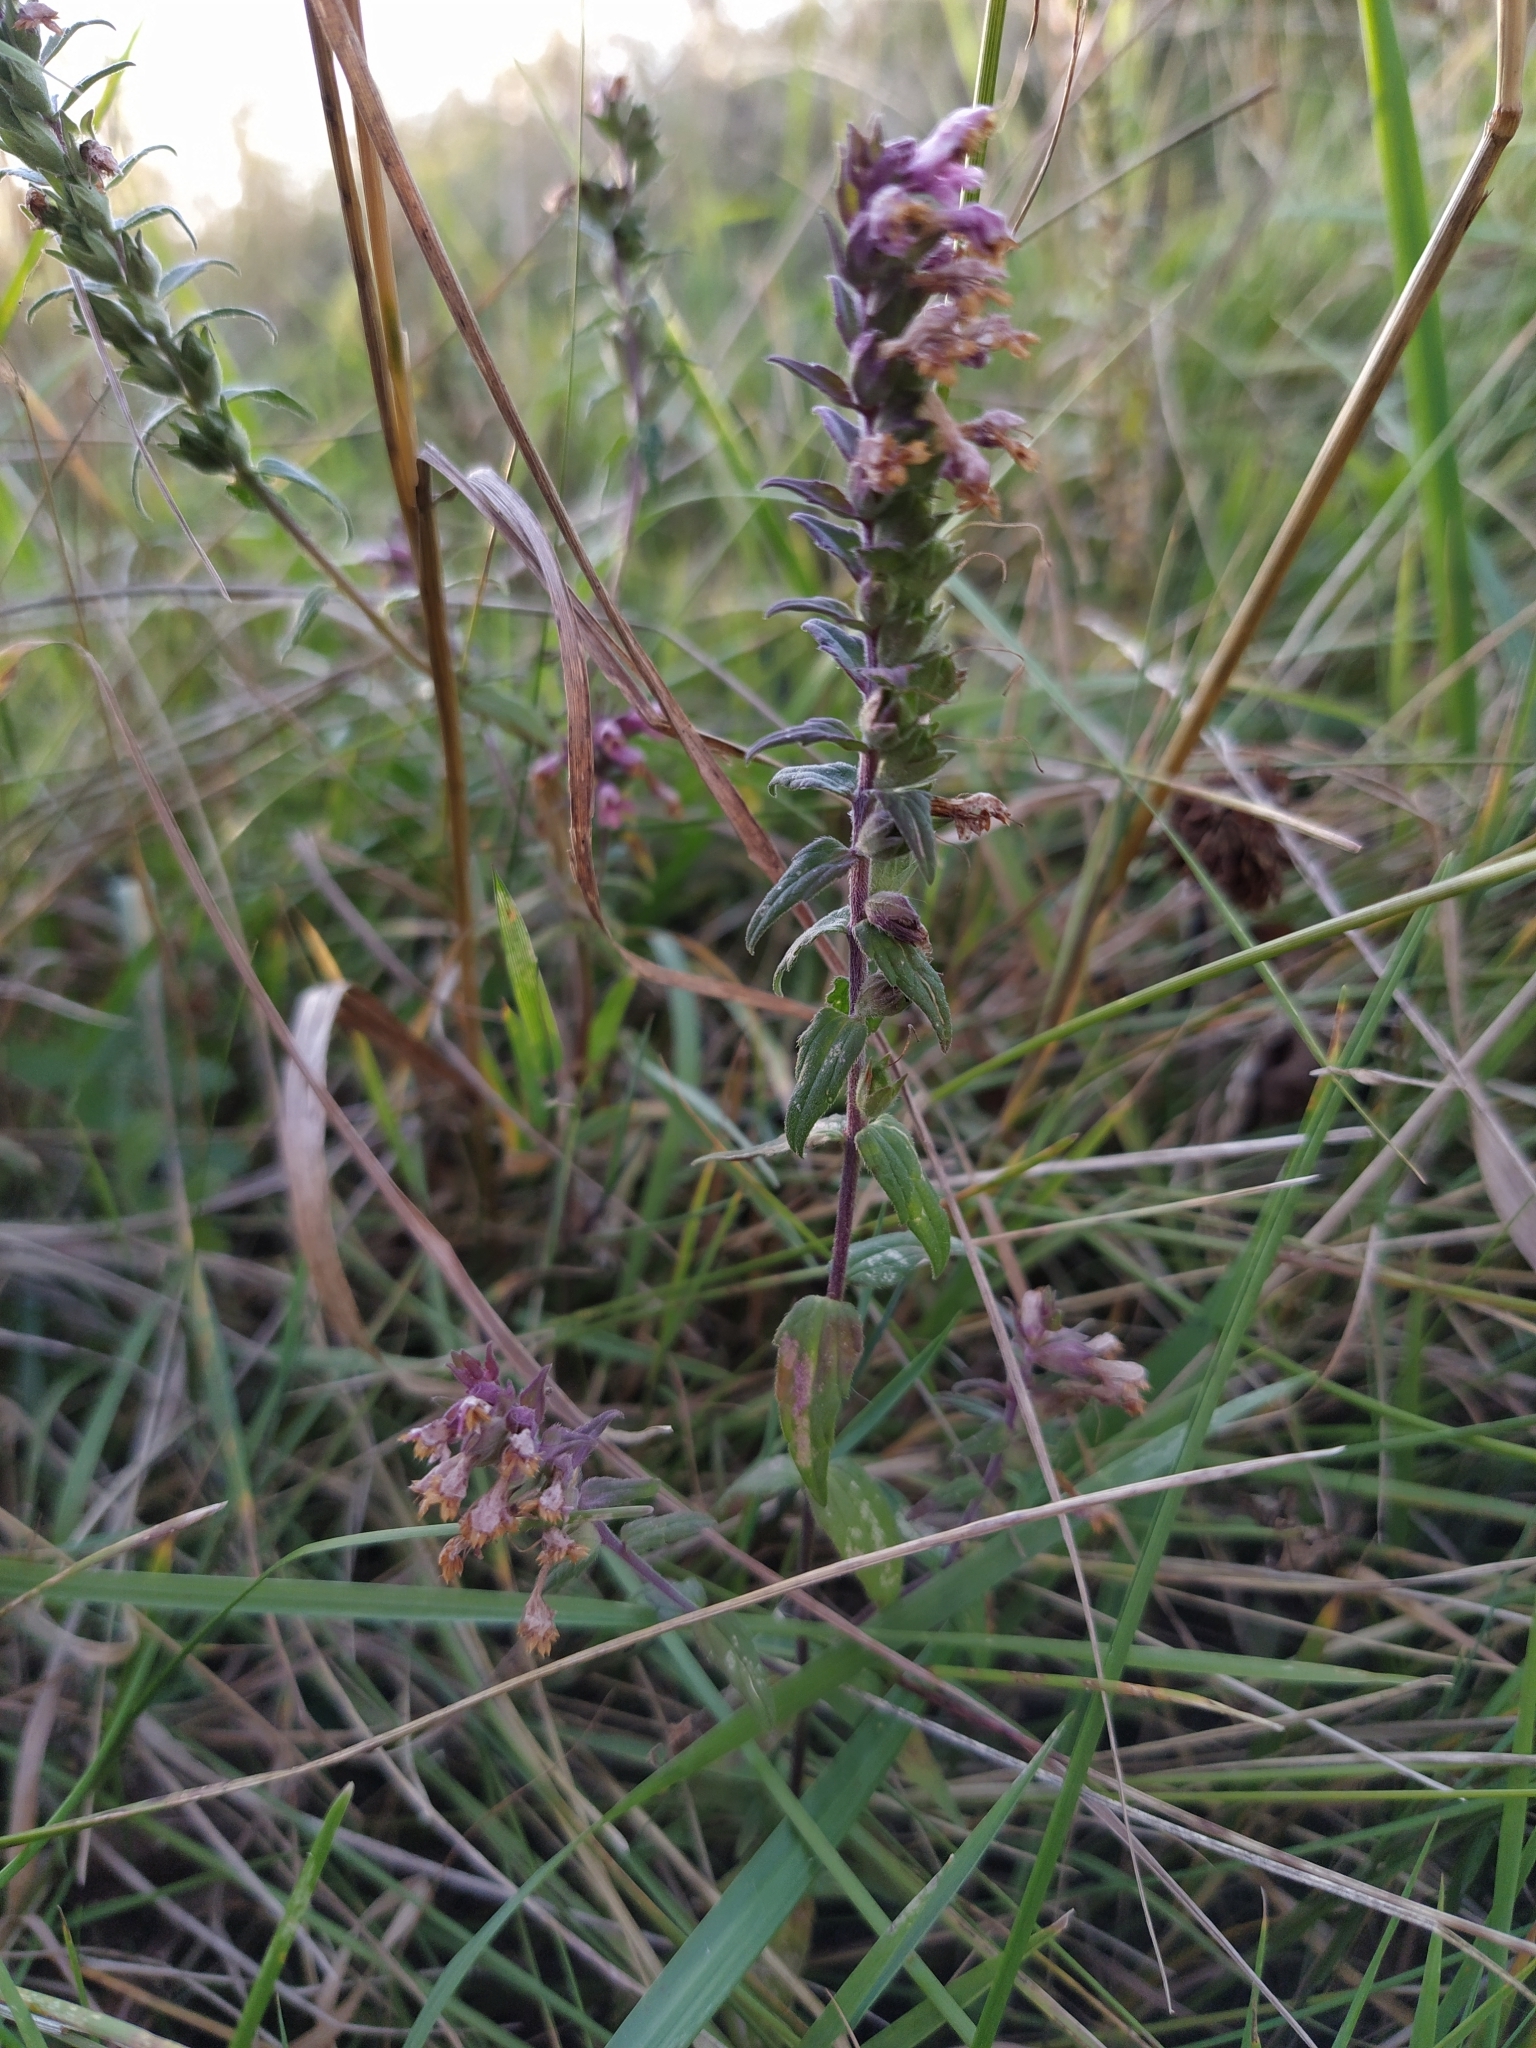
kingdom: Plantae
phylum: Tracheophyta
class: Magnoliopsida
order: Lamiales
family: Orobanchaceae
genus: Odontites
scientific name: Odontites vulgaris
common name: Broomrape
